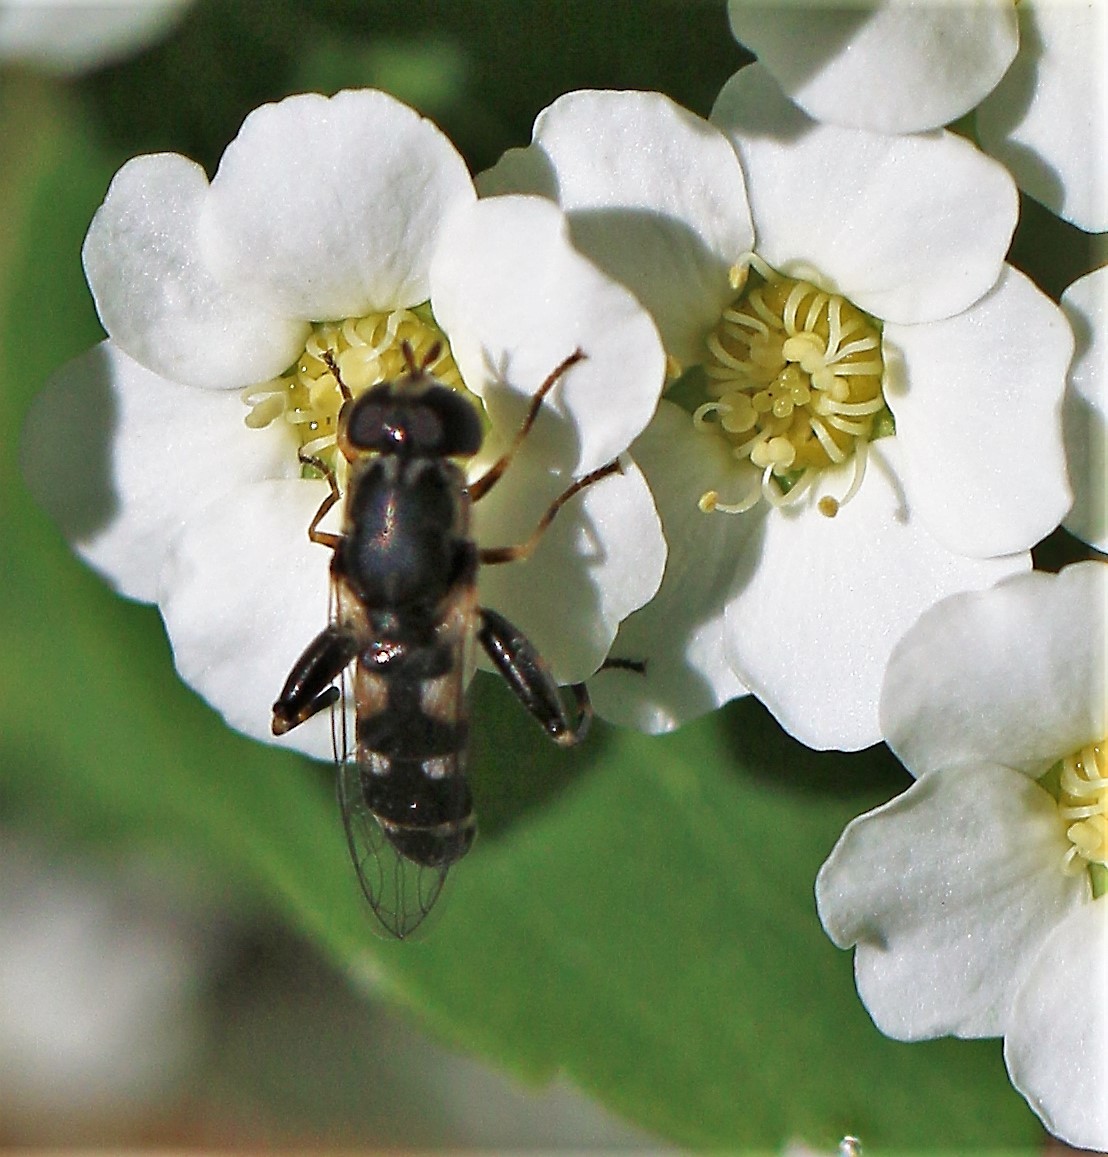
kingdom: Animalia
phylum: Arthropoda
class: Insecta
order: Diptera
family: Syrphidae
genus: Syritta
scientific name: Syritta pipiens
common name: Hover fly
